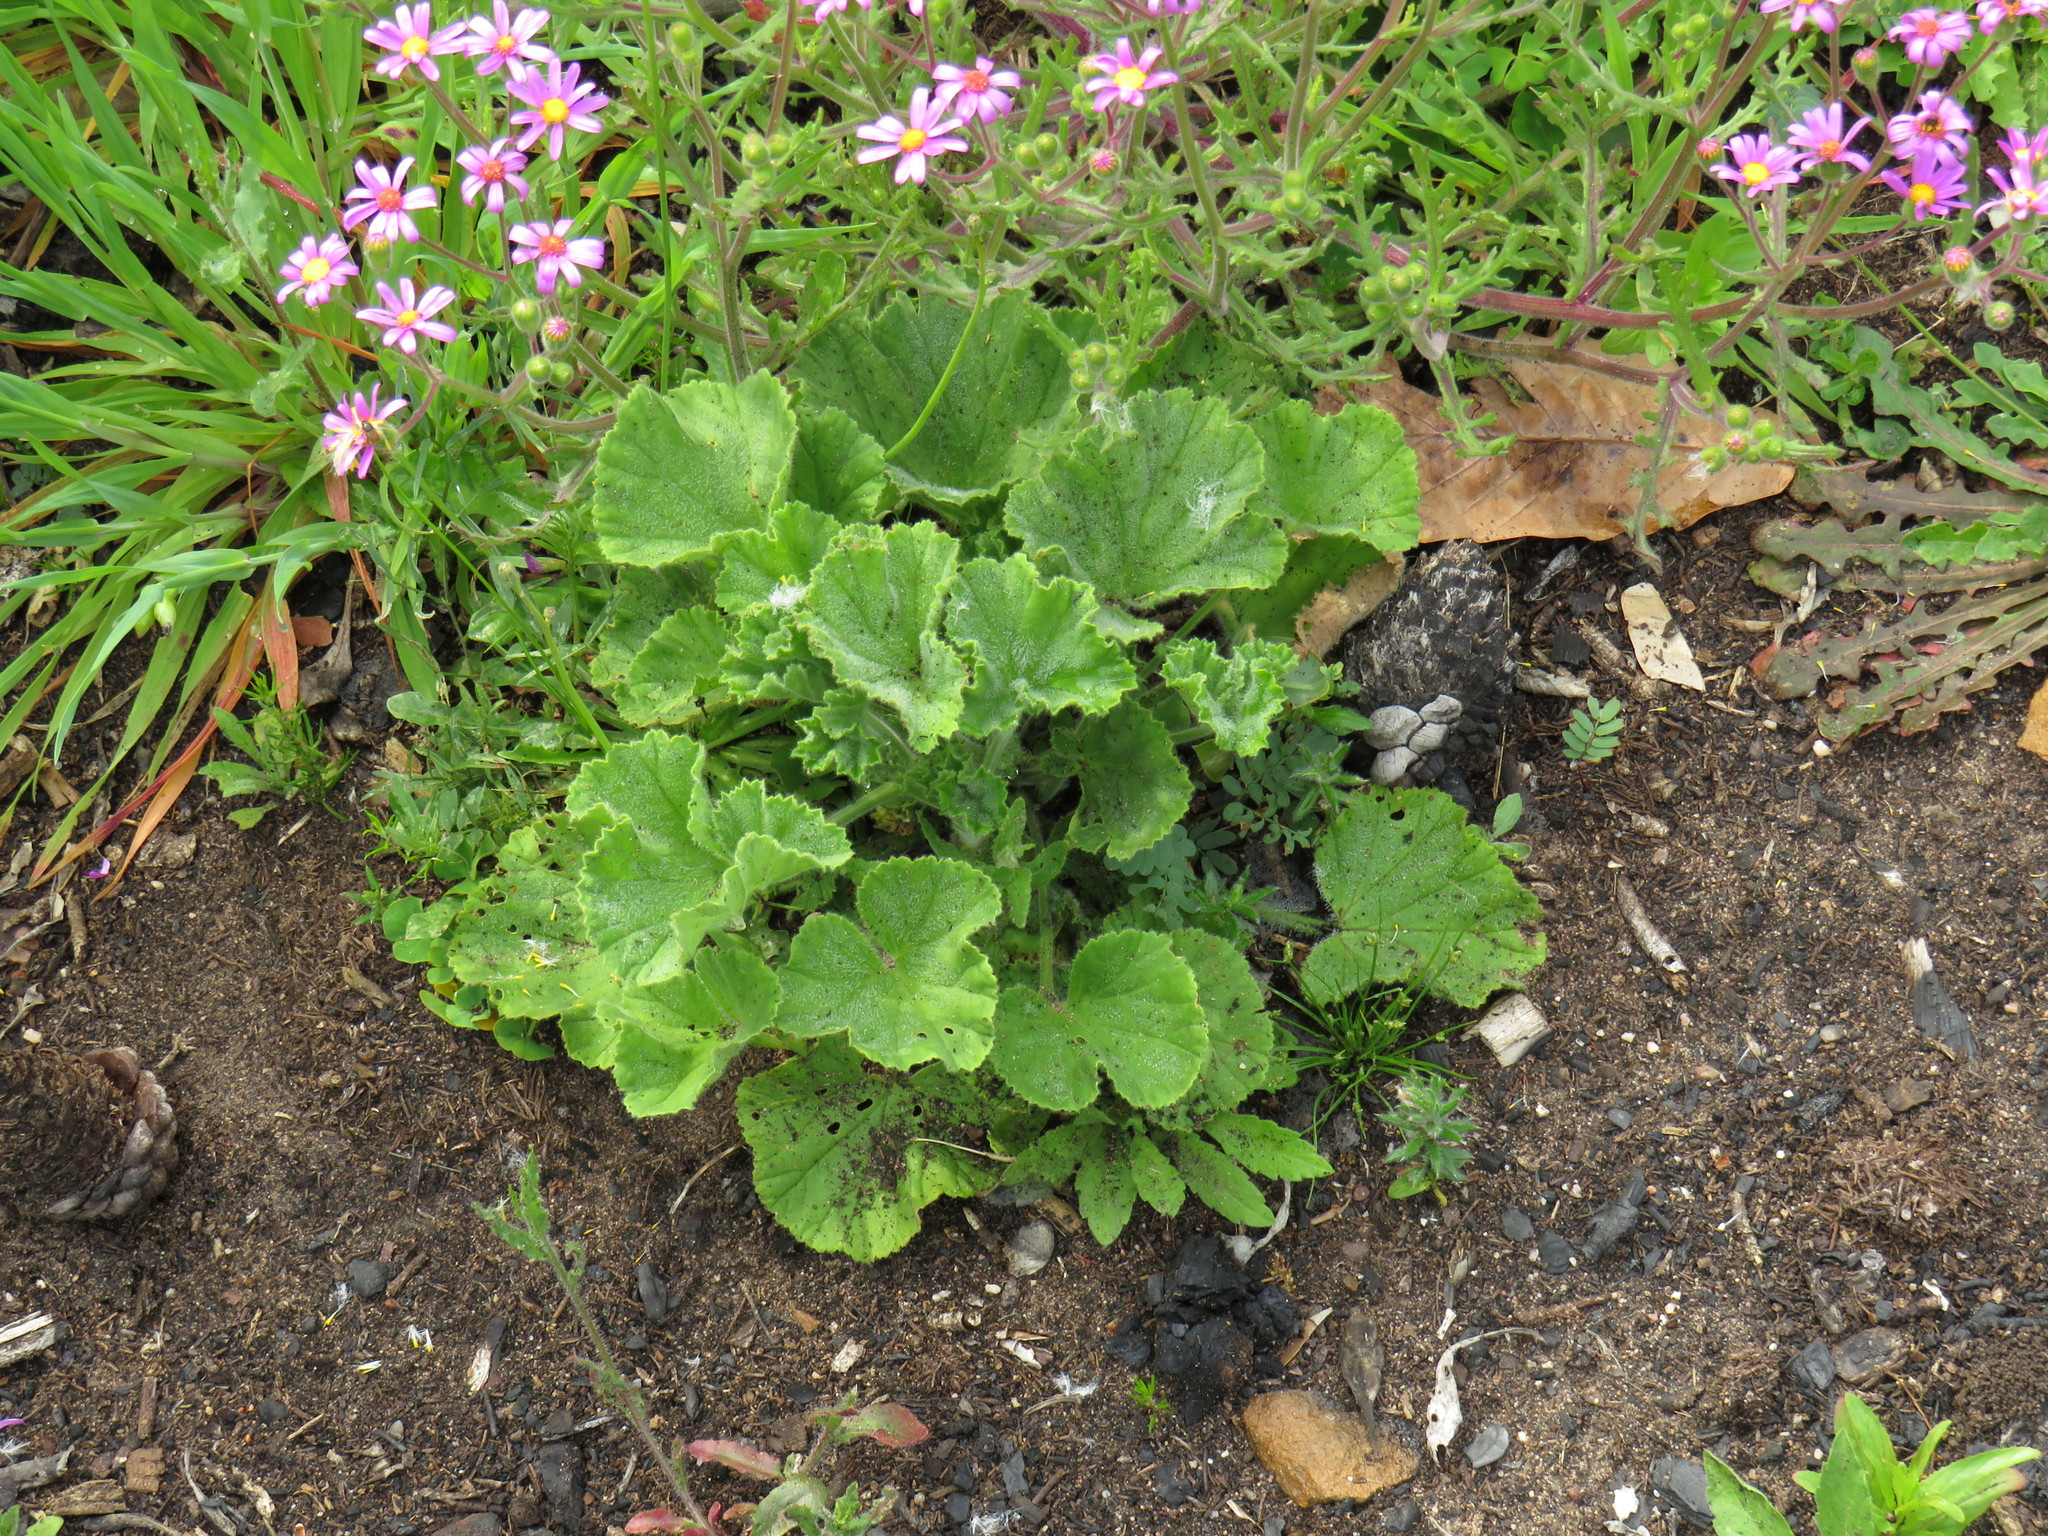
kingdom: Plantae
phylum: Tracheophyta
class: Magnoliopsida
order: Geraniales
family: Geraniaceae
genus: Pelargonium
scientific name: Pelargonium cucullatum
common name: Tree pelargonium
